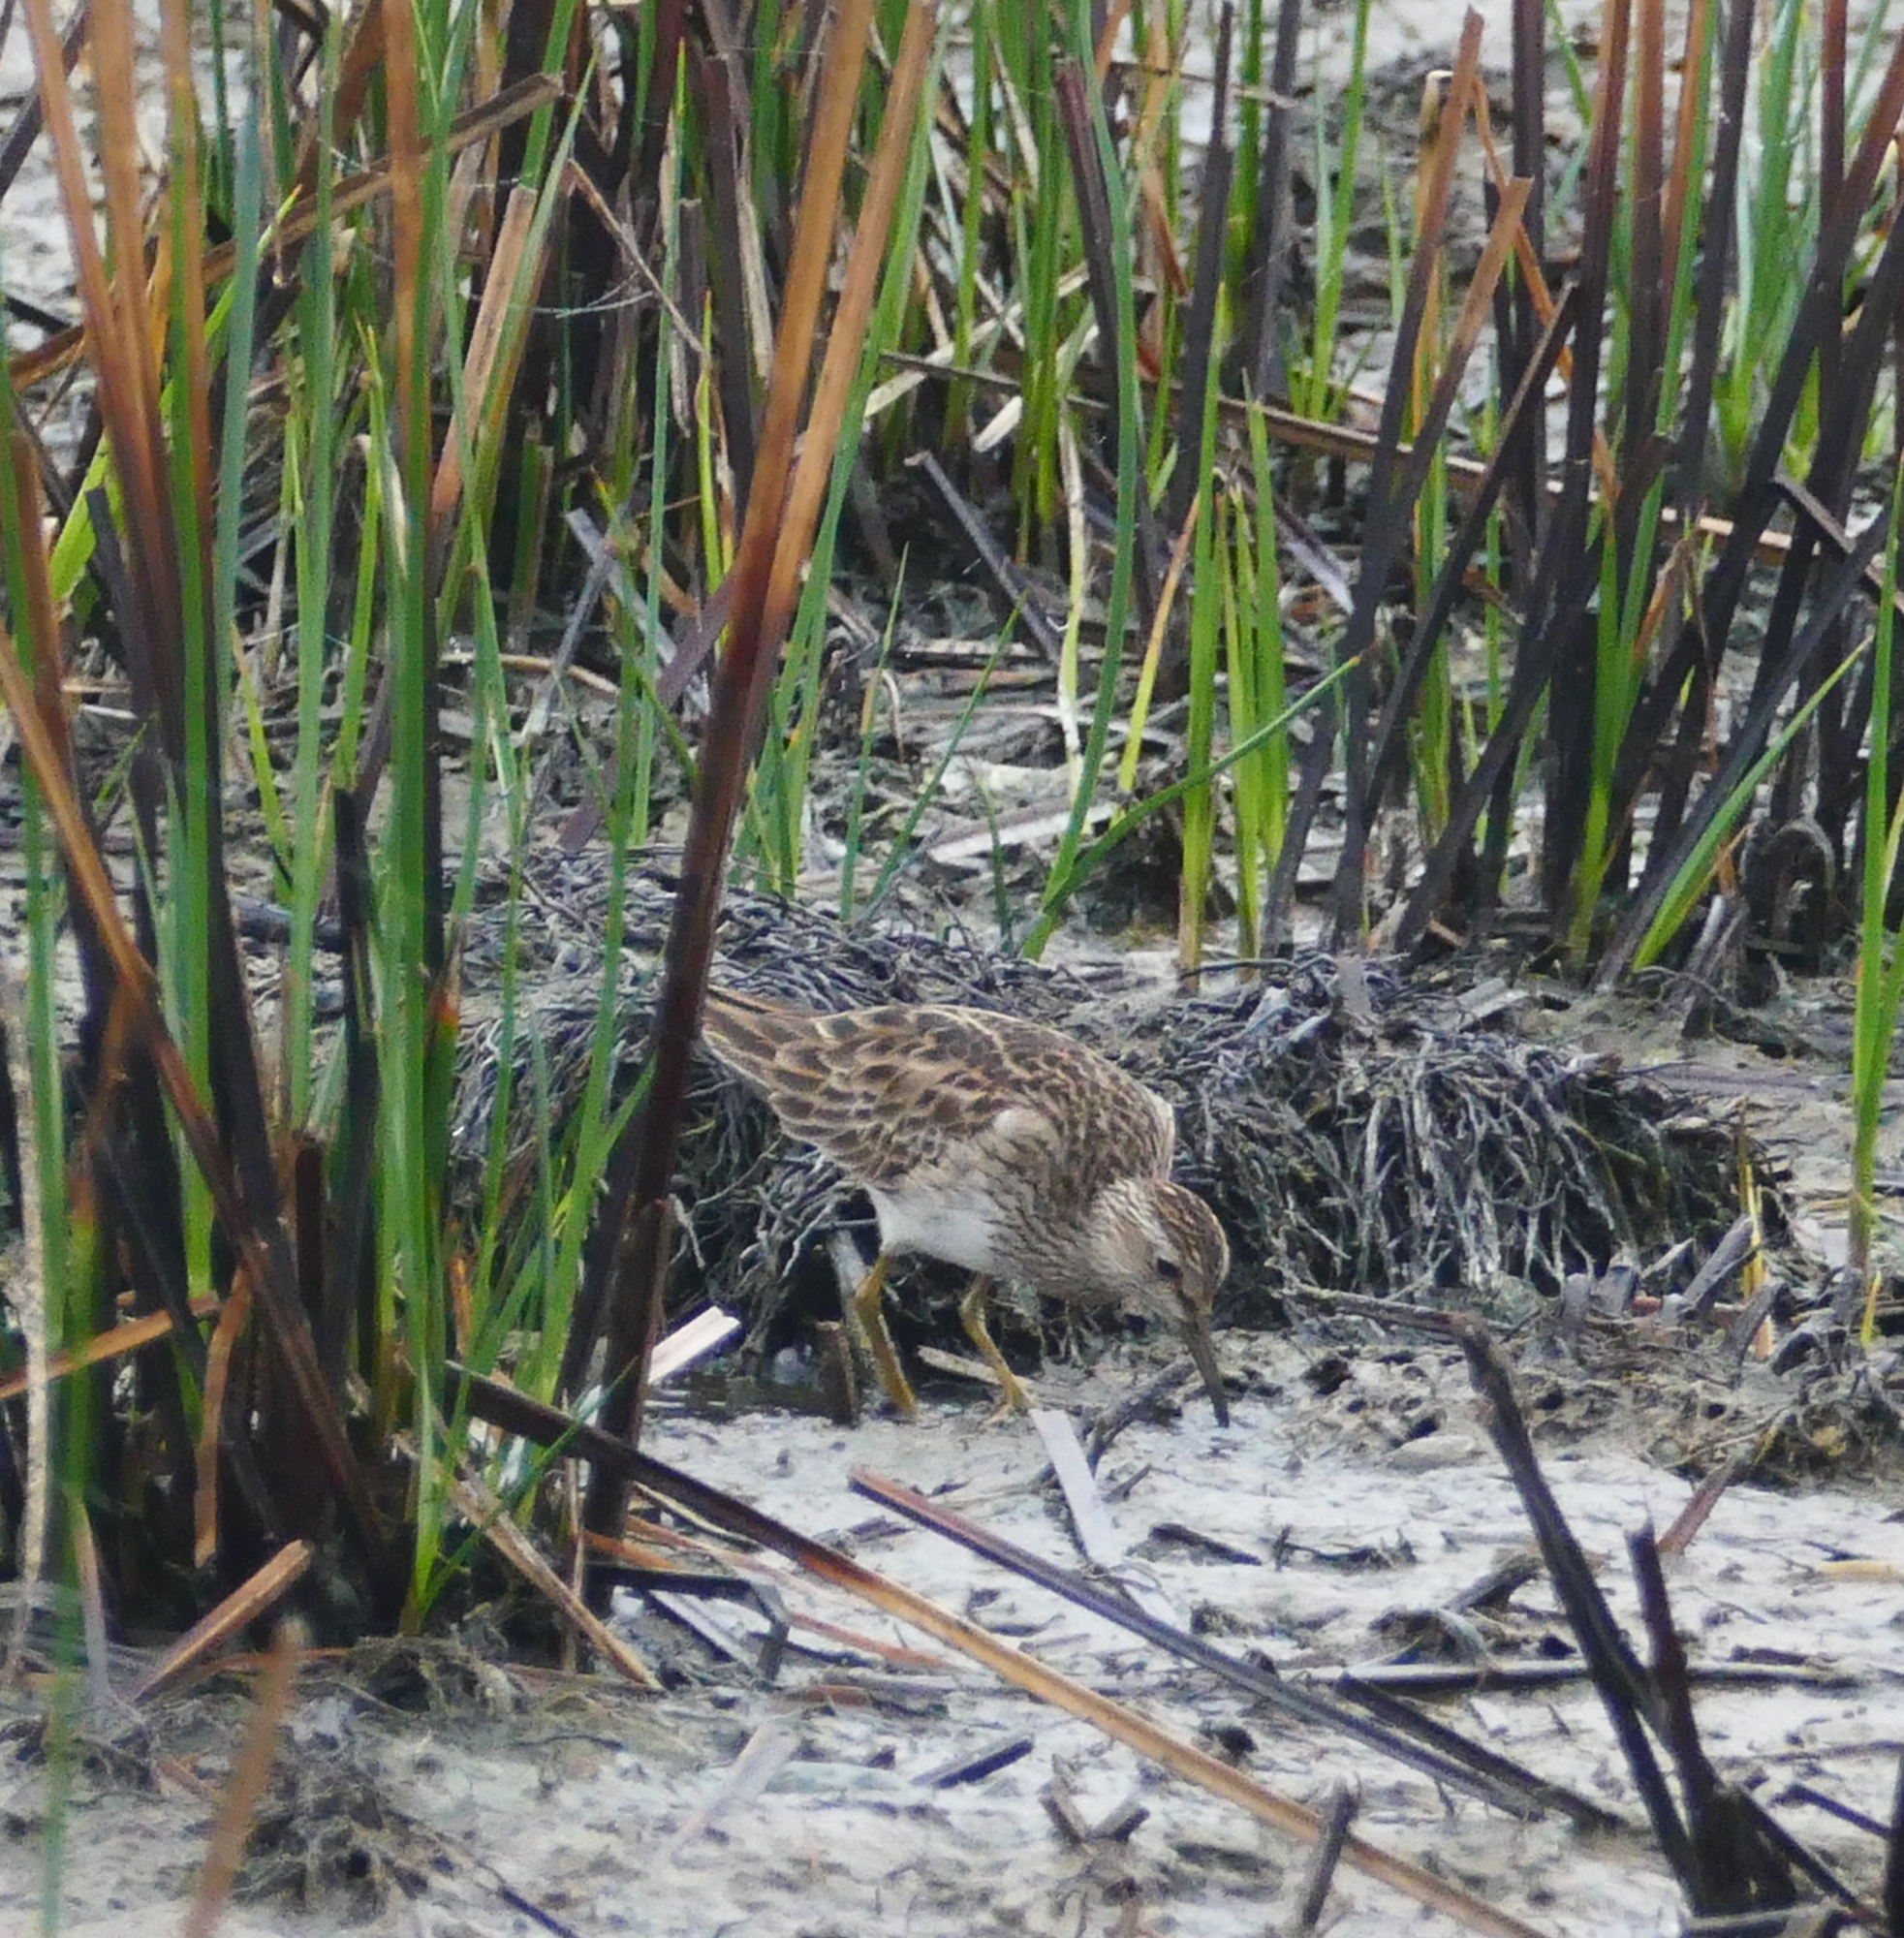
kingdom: Animalia
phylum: Chordata
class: Aves
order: Charadriiformes
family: Scolopacidae
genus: Calidris
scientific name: Calidris melanotos
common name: Pectoral sandpiper
